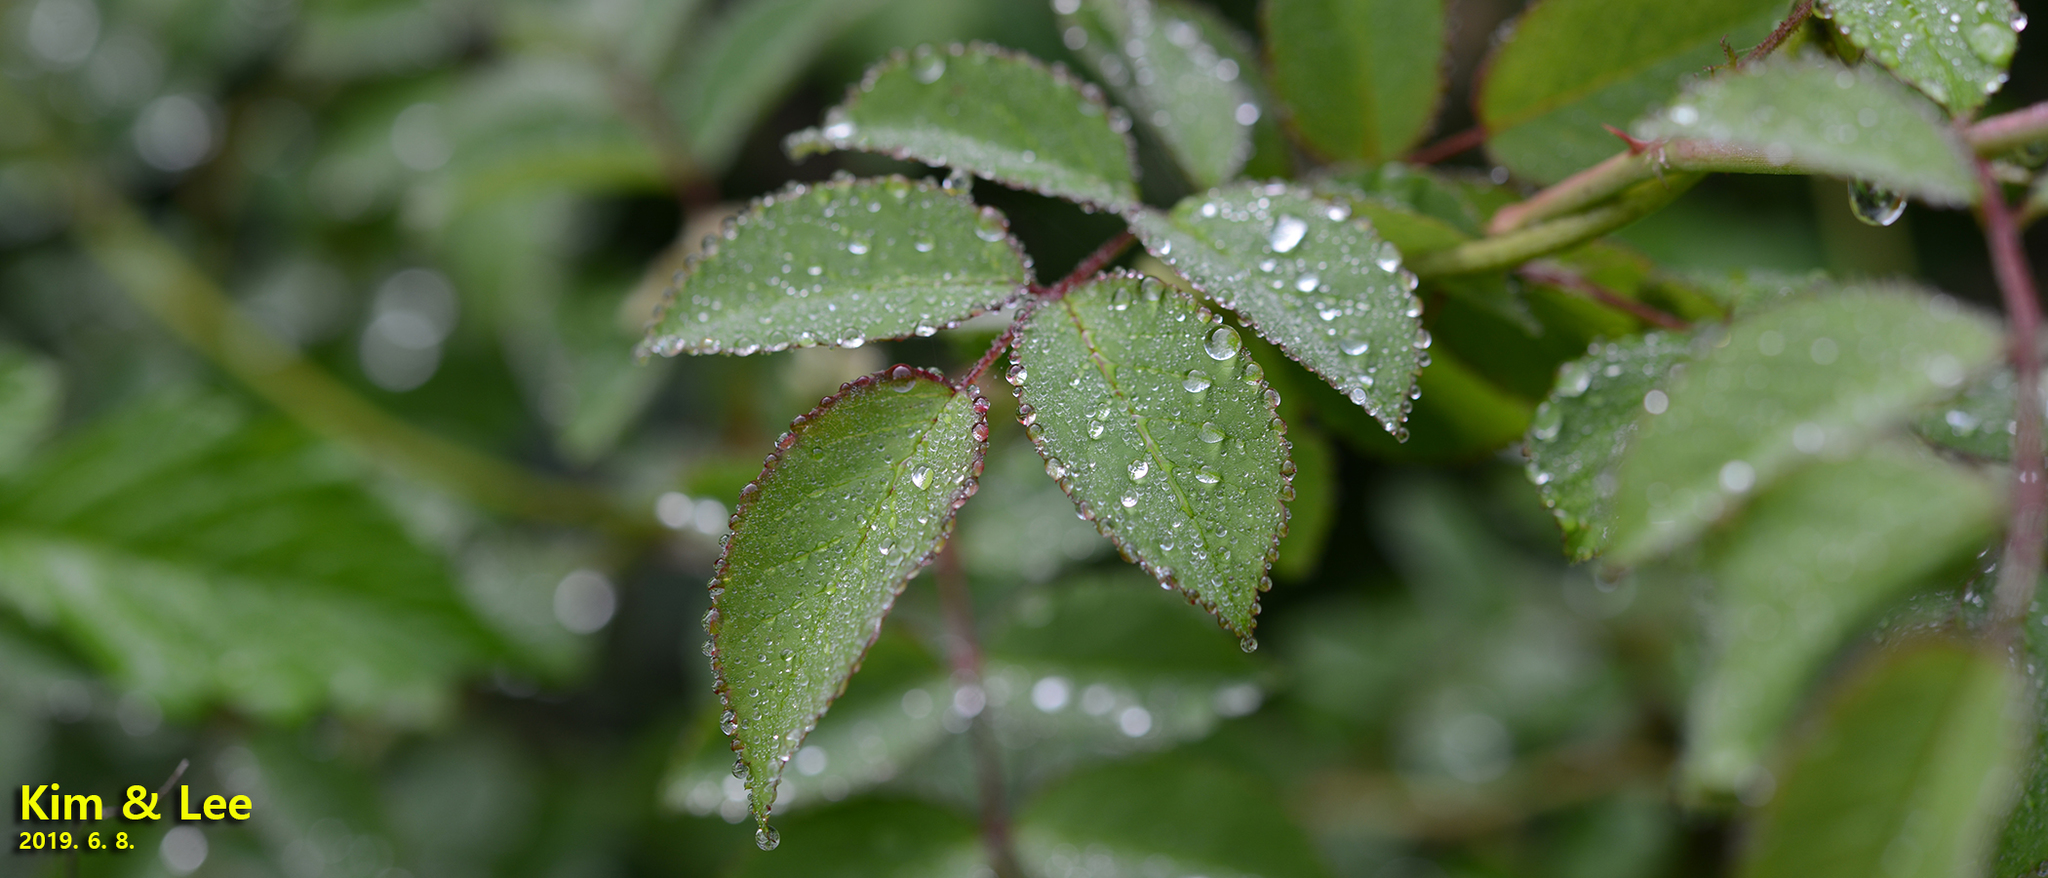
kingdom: Plantae
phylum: Tracheophyta
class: Magnoliopsida
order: Rosales
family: Rosaceae
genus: Rosa
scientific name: Rosa multiflora
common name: Multiflora rose
